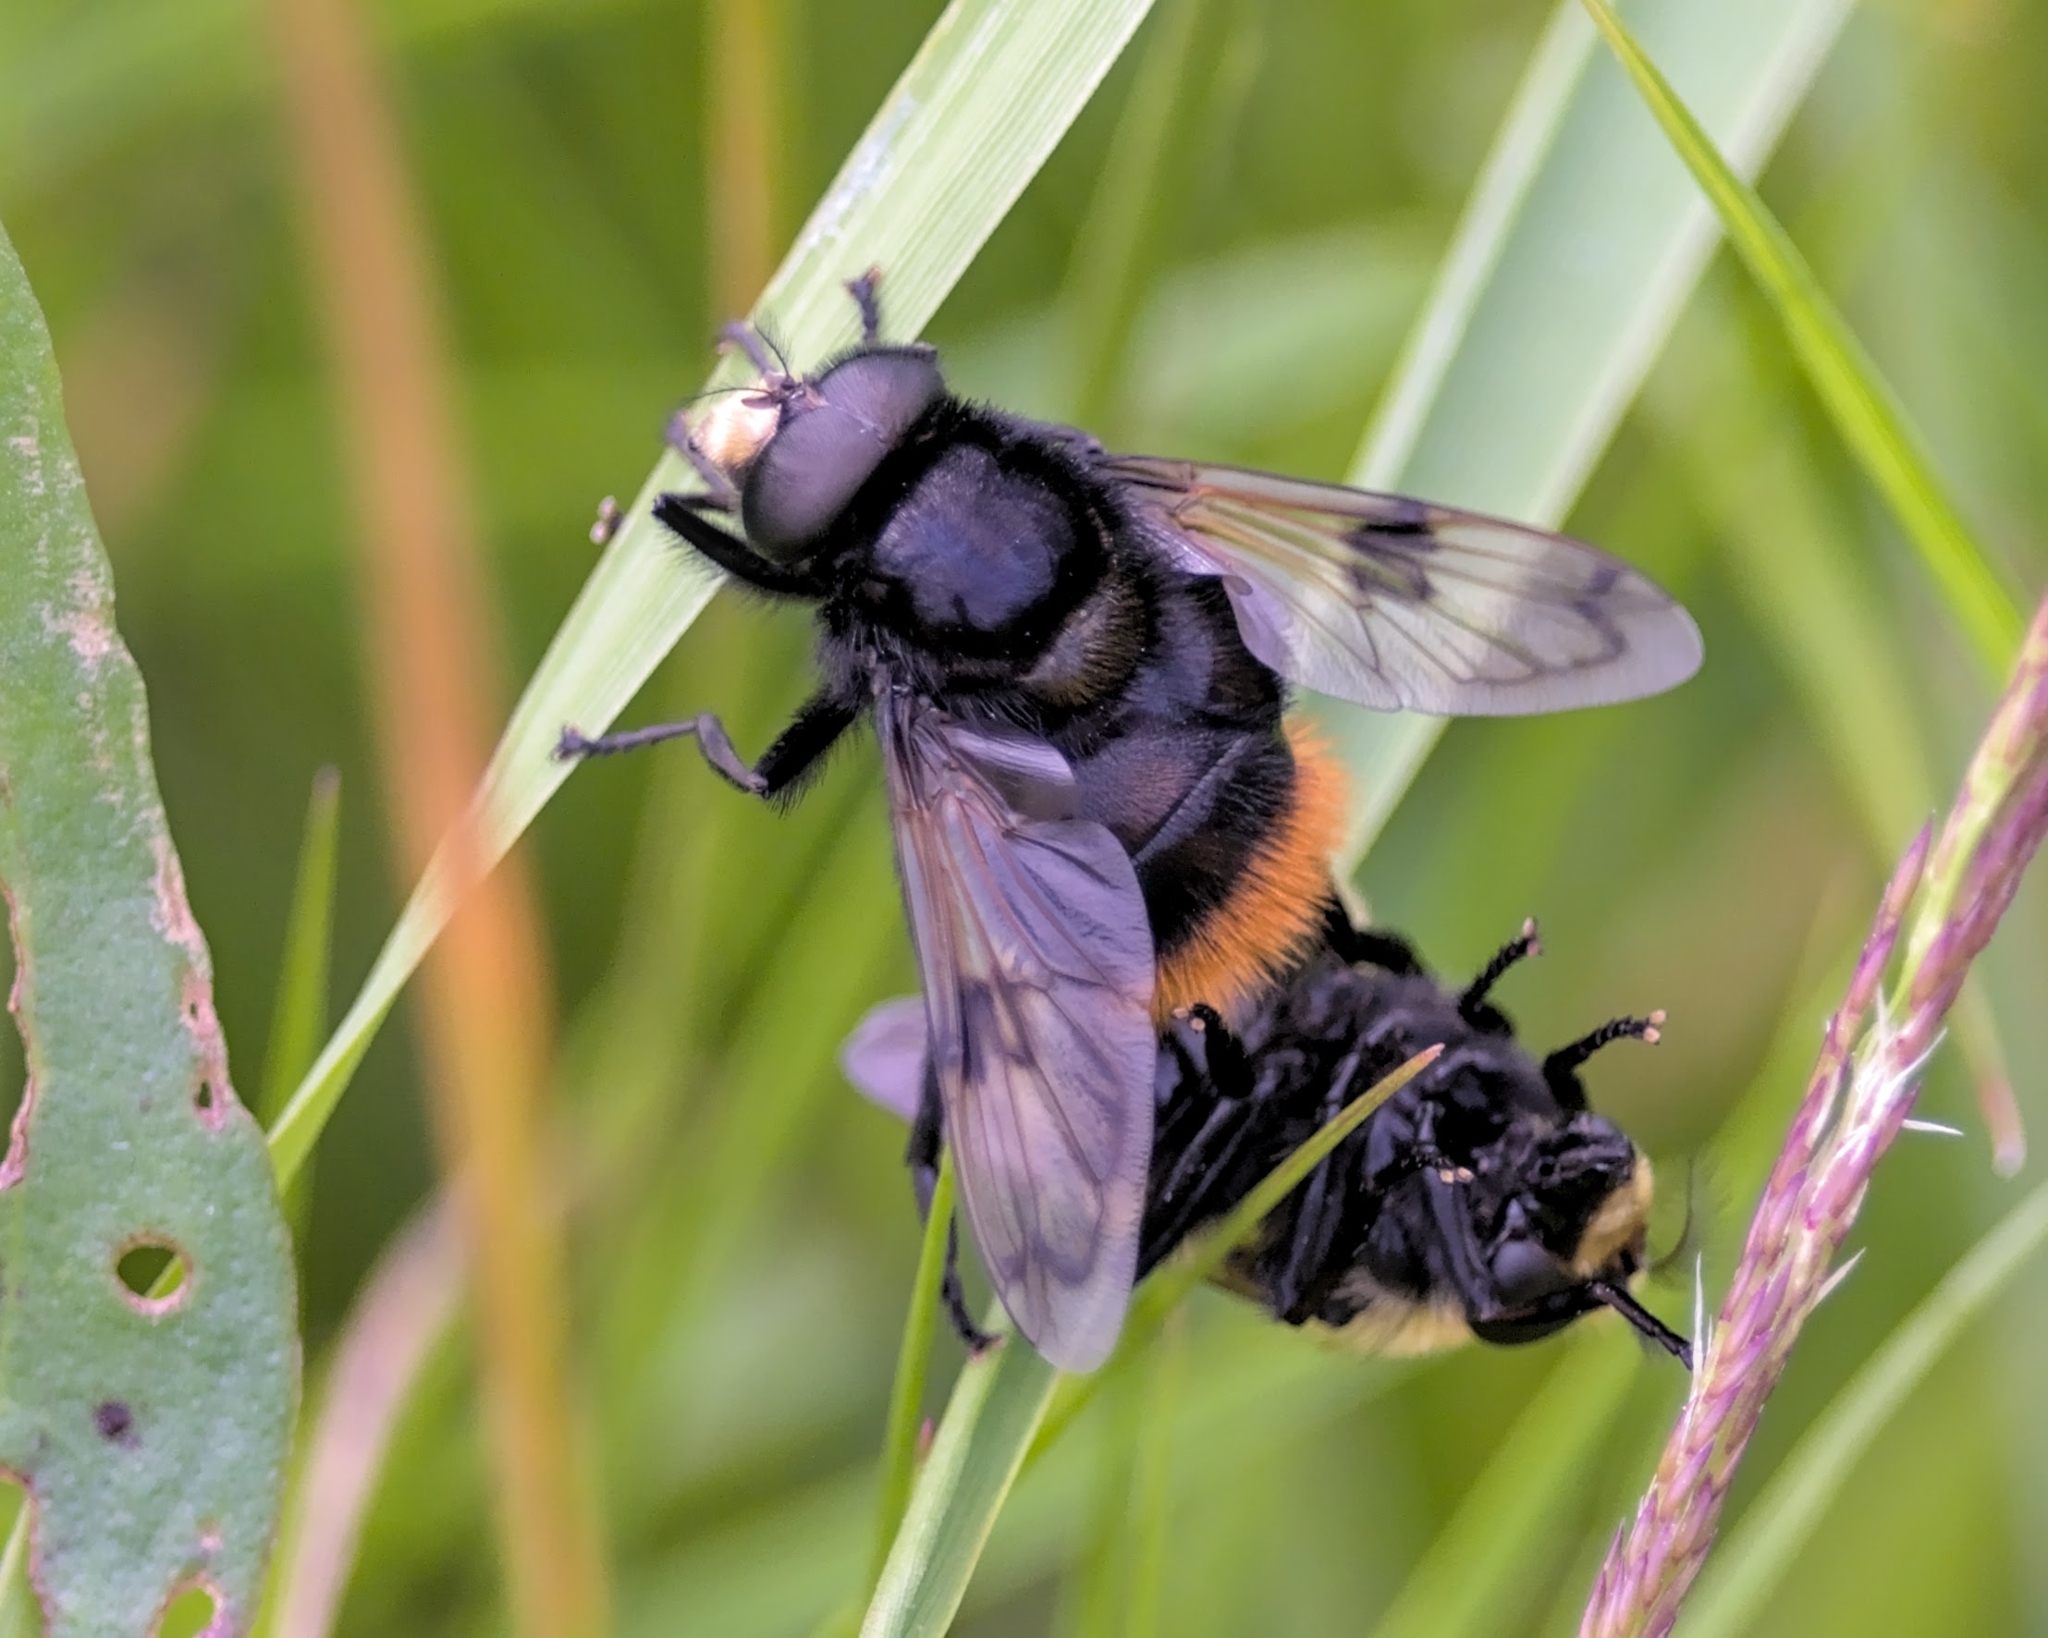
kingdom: Animalia
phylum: Arthropoda
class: Insecta
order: Diptera
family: Syrphidae
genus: Volucella
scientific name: Volucella bombylans
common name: Bumble bee hover fly
